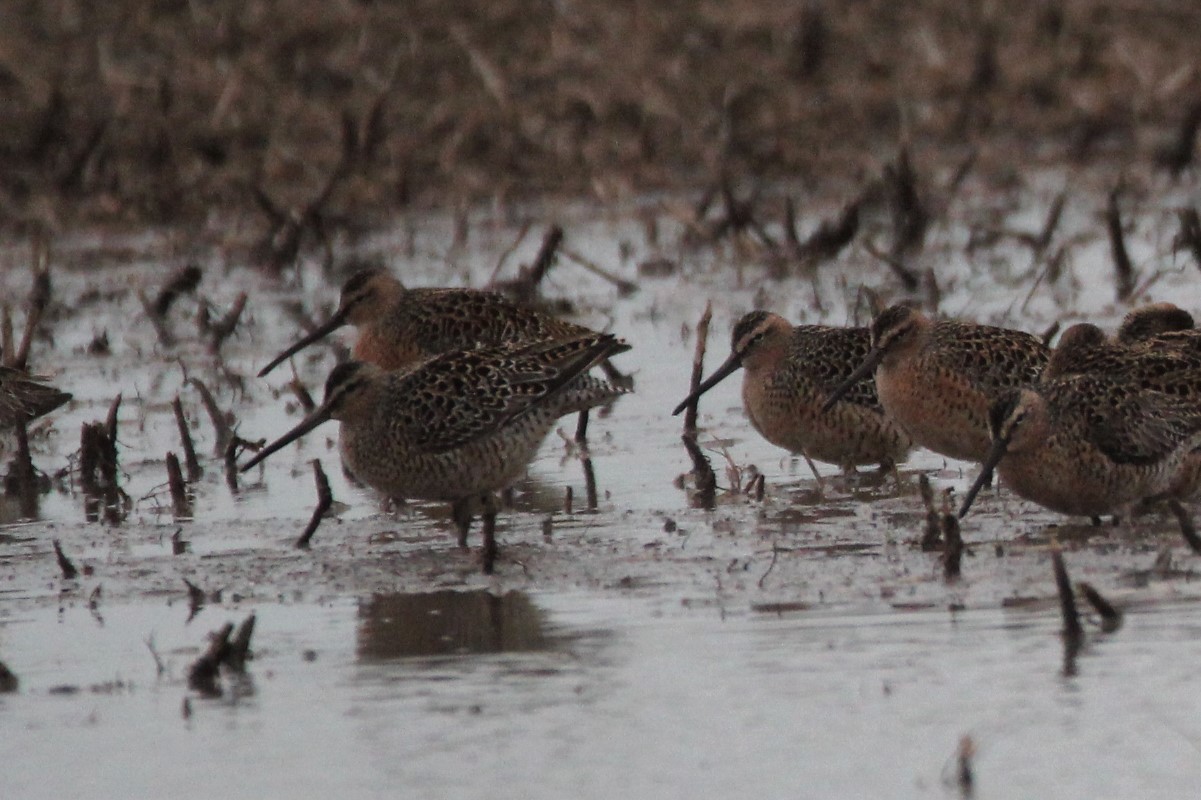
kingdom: Animalia
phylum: Chordata
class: Aves
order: Charadriiformes
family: Scolopacidae
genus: Limnodromus
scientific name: Limnodromus griseus
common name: Short-billed dowitcher
